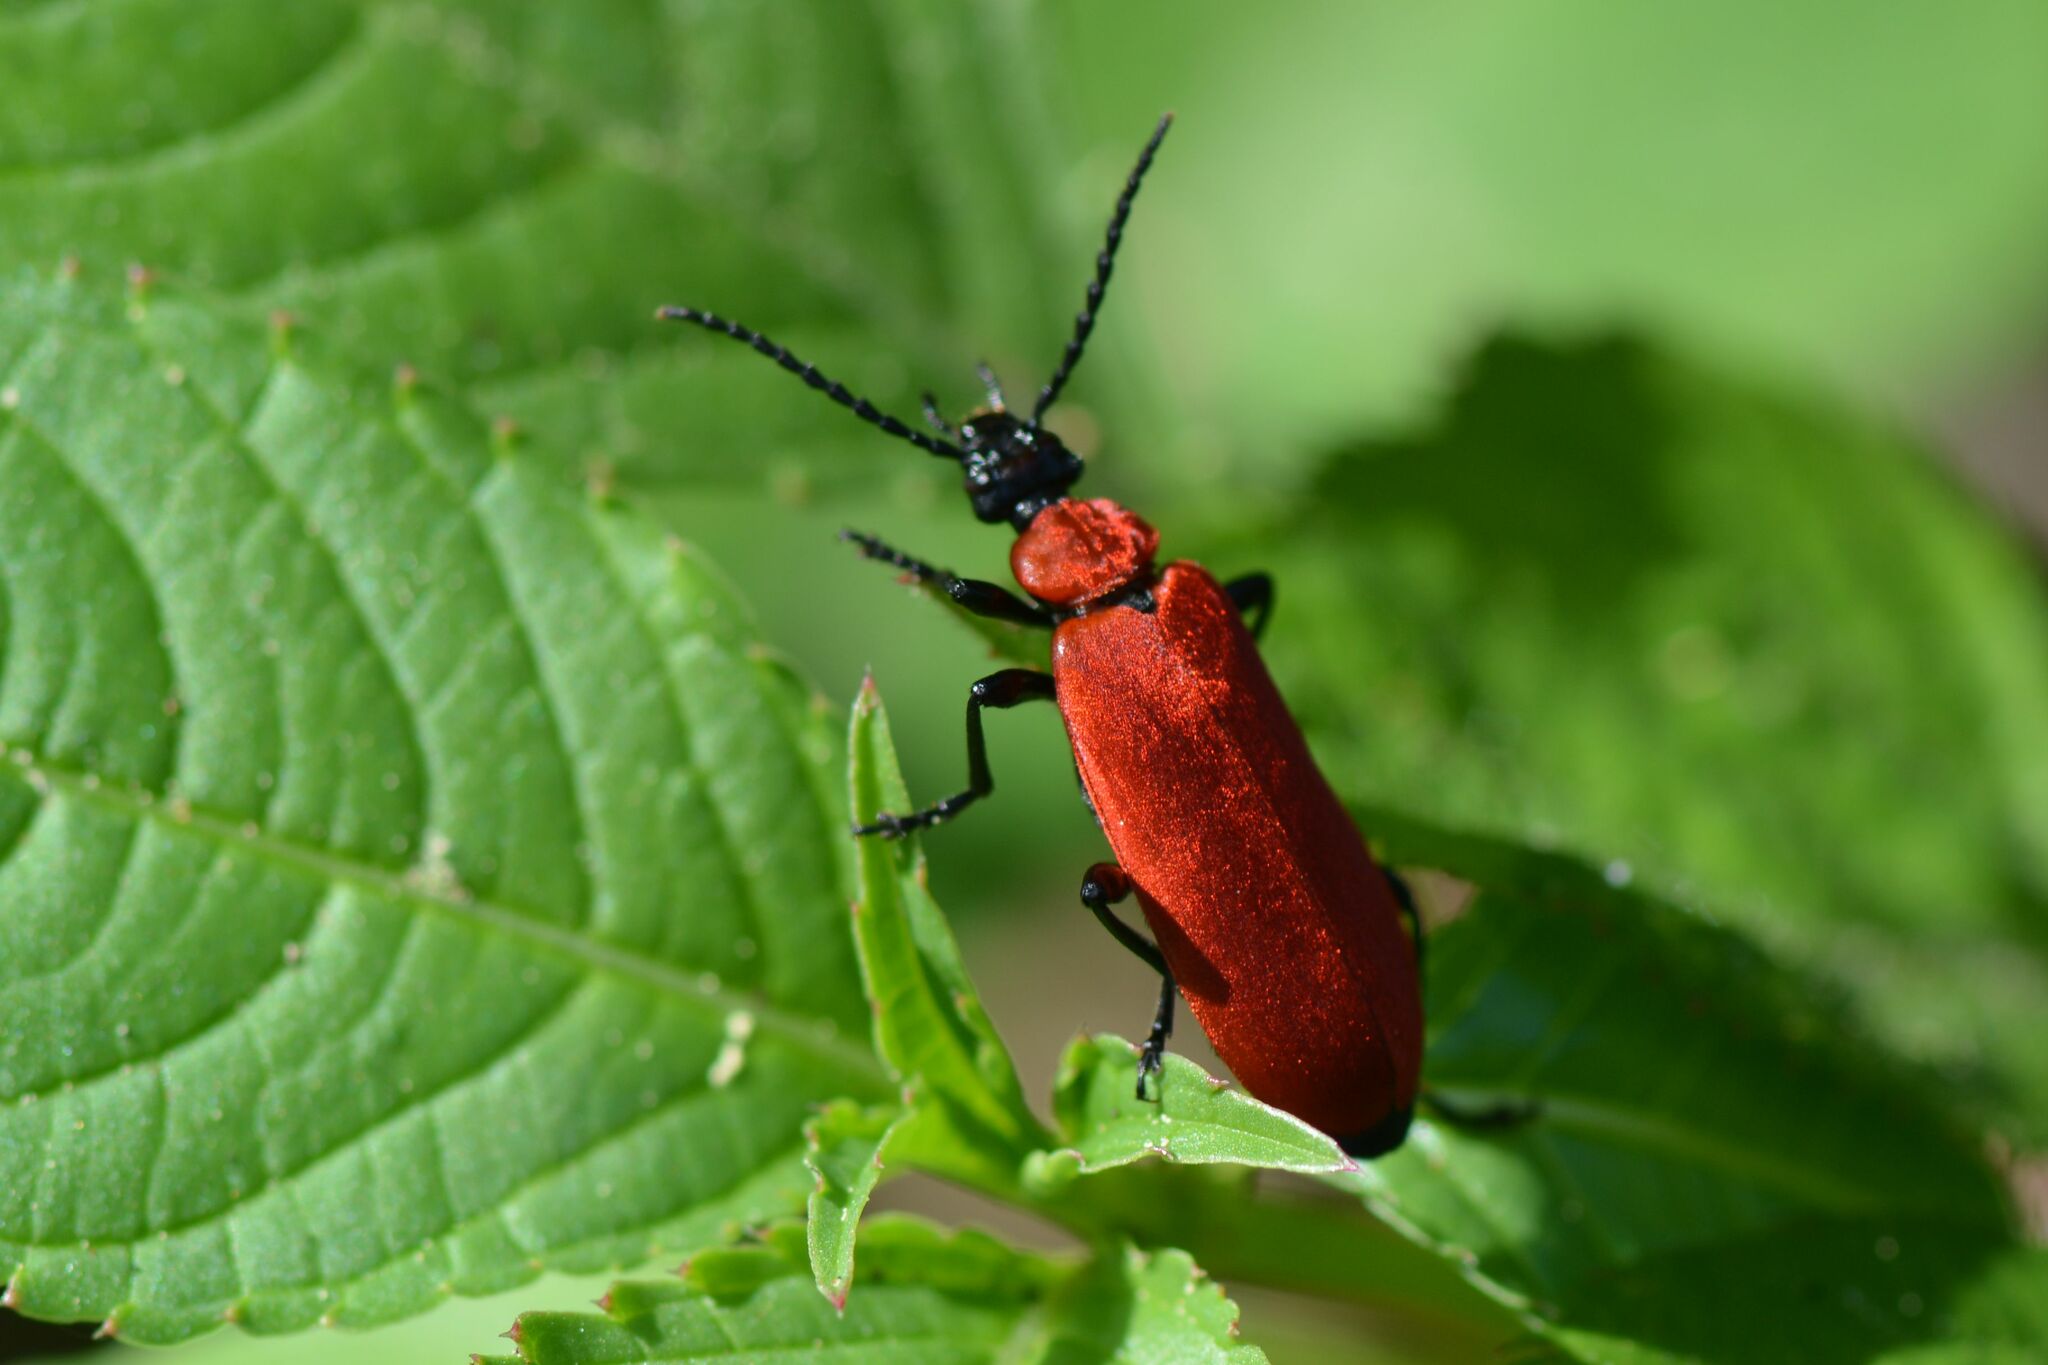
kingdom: Animalia
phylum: Arthropoda
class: Insecta
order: Coleoptera
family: Pyrochroidae
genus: Pyrochroa
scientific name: Pyrochroa coccinea
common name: Black-headed cardinal beetle
